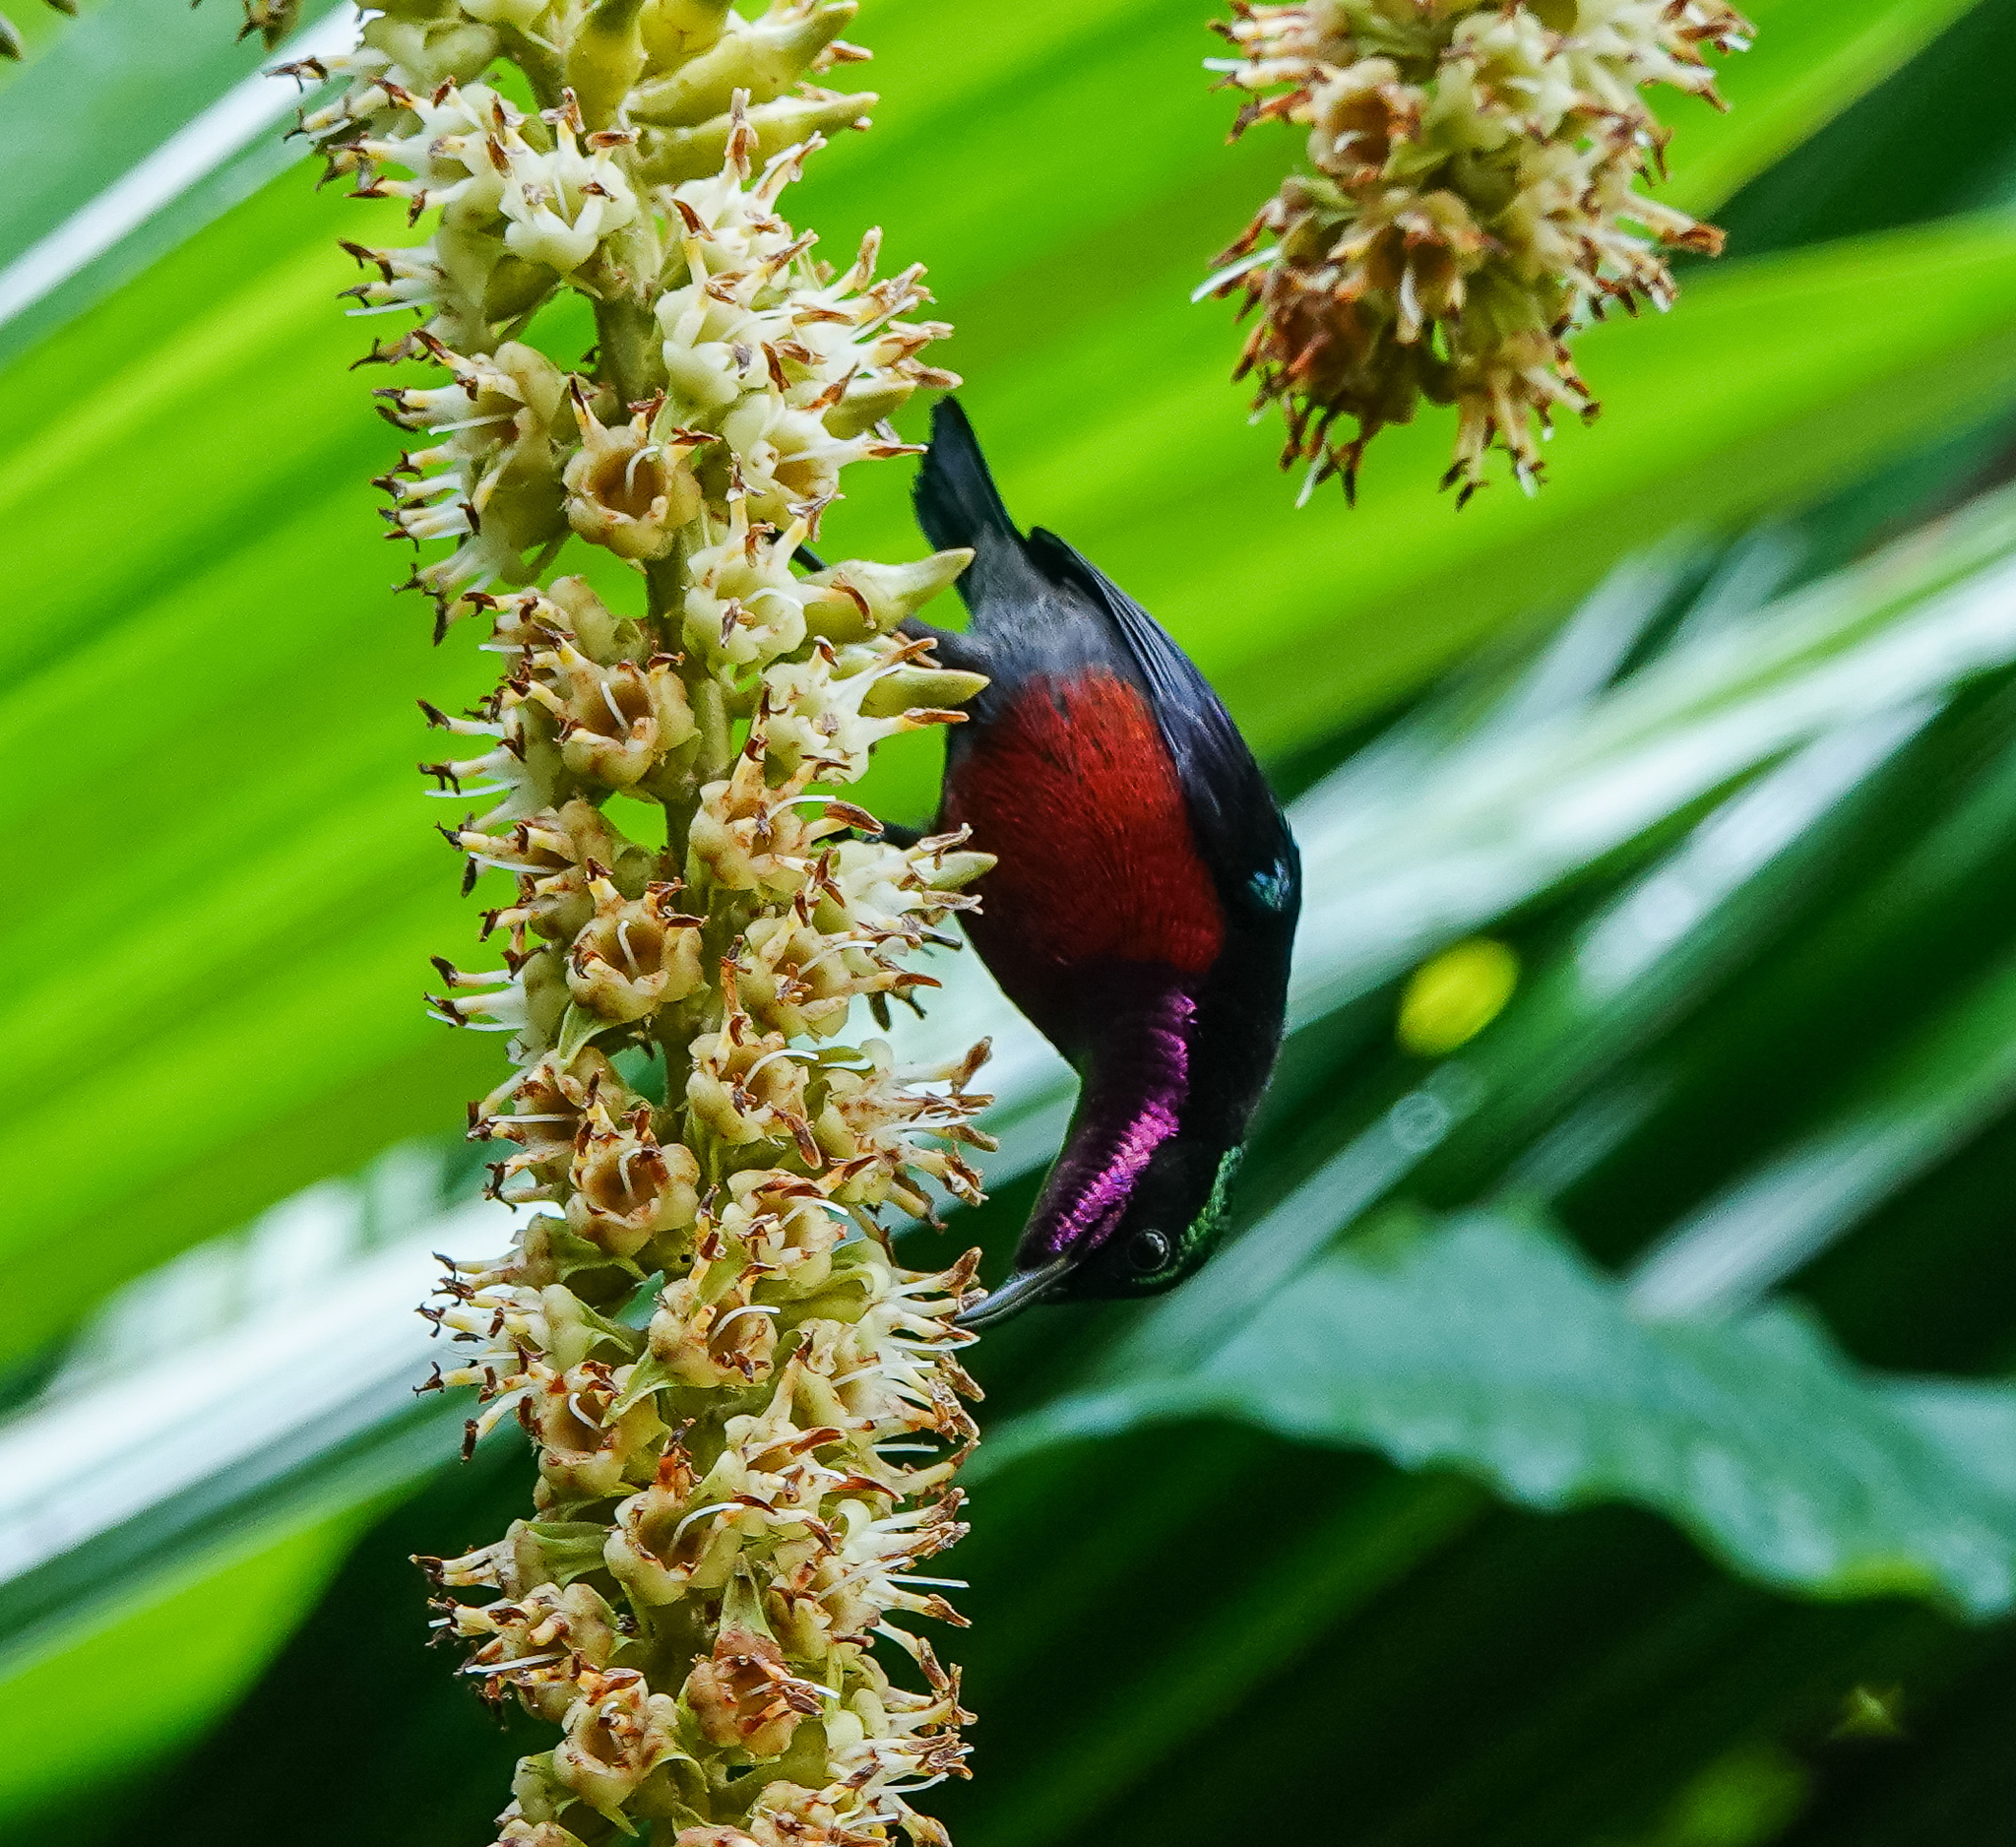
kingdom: Animalia
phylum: Chordata
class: Aves
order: Passeriformes
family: Nectariniidae
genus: Leptocoma
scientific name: Leptocoma brasiliana
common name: Van hasselt's sunbird
